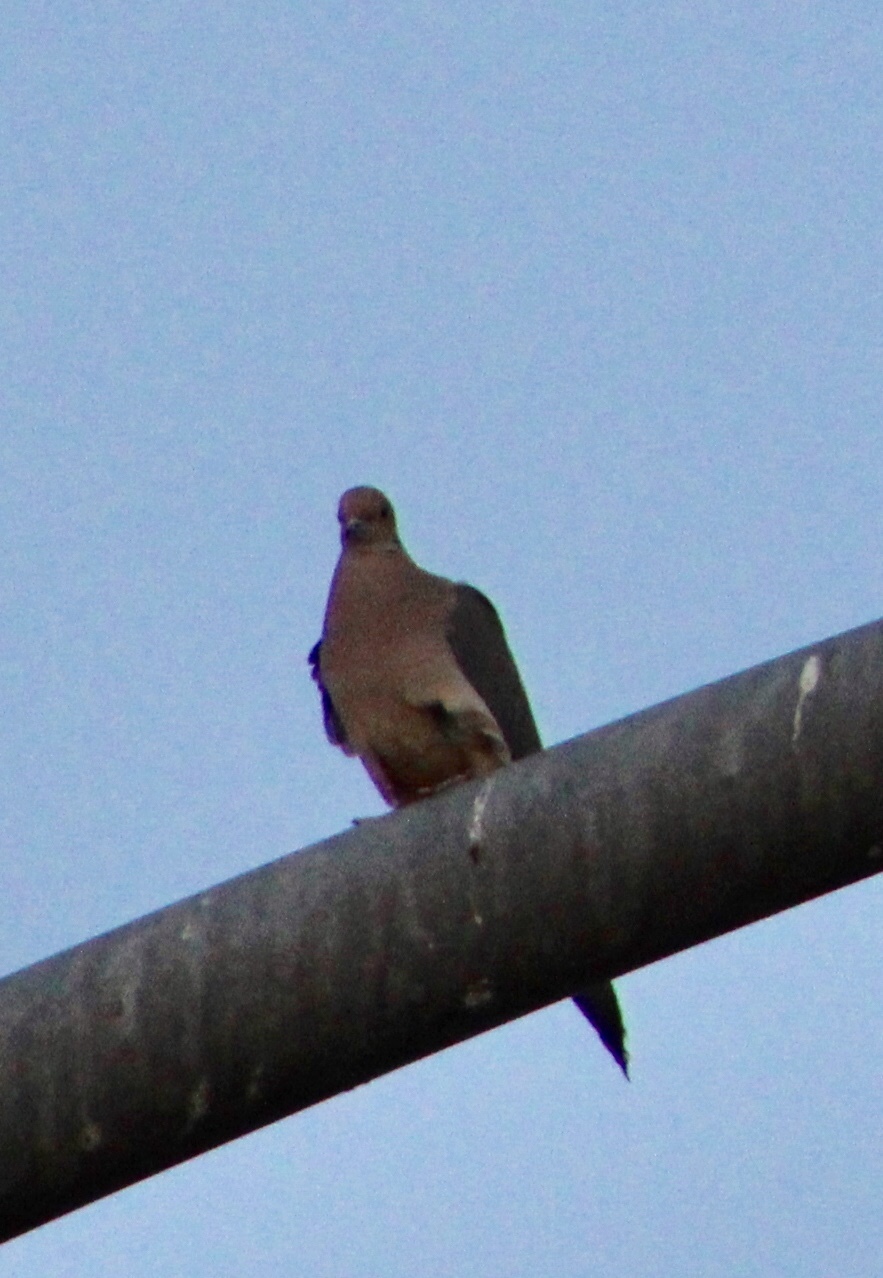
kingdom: Animalia
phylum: Chordata
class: Aves
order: Columbiformes
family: Columbidae
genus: Zenaida
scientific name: Zenaida macroura
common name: Mourning dove
